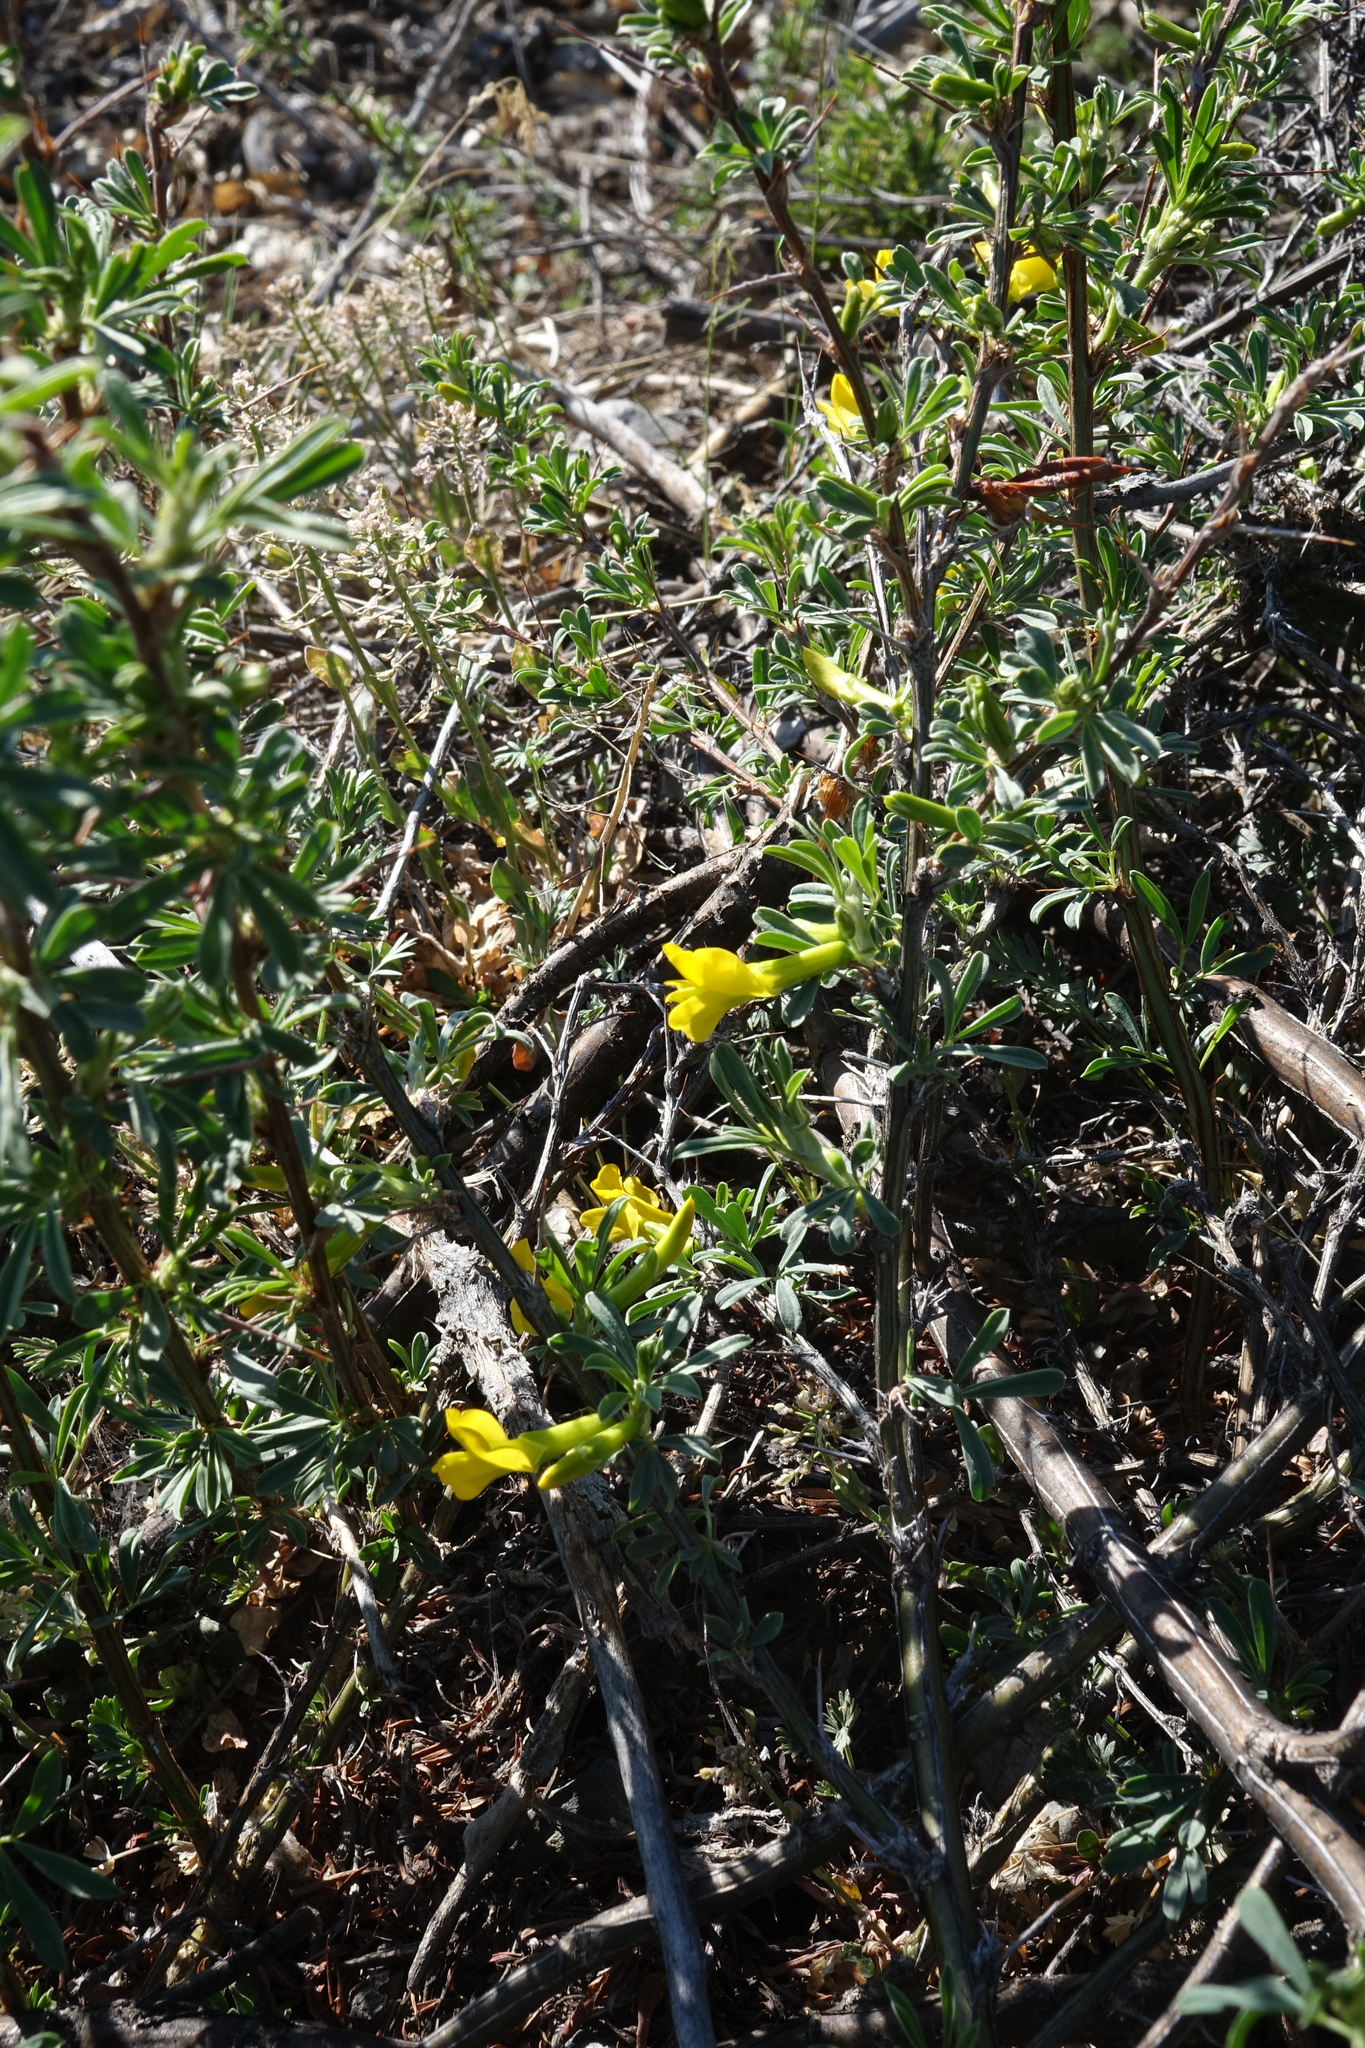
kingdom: Plantae
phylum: Tracheophyta
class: Magnoliopsida
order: Fabales
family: Fabaceae
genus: Caragana
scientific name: Caragana spinosa
